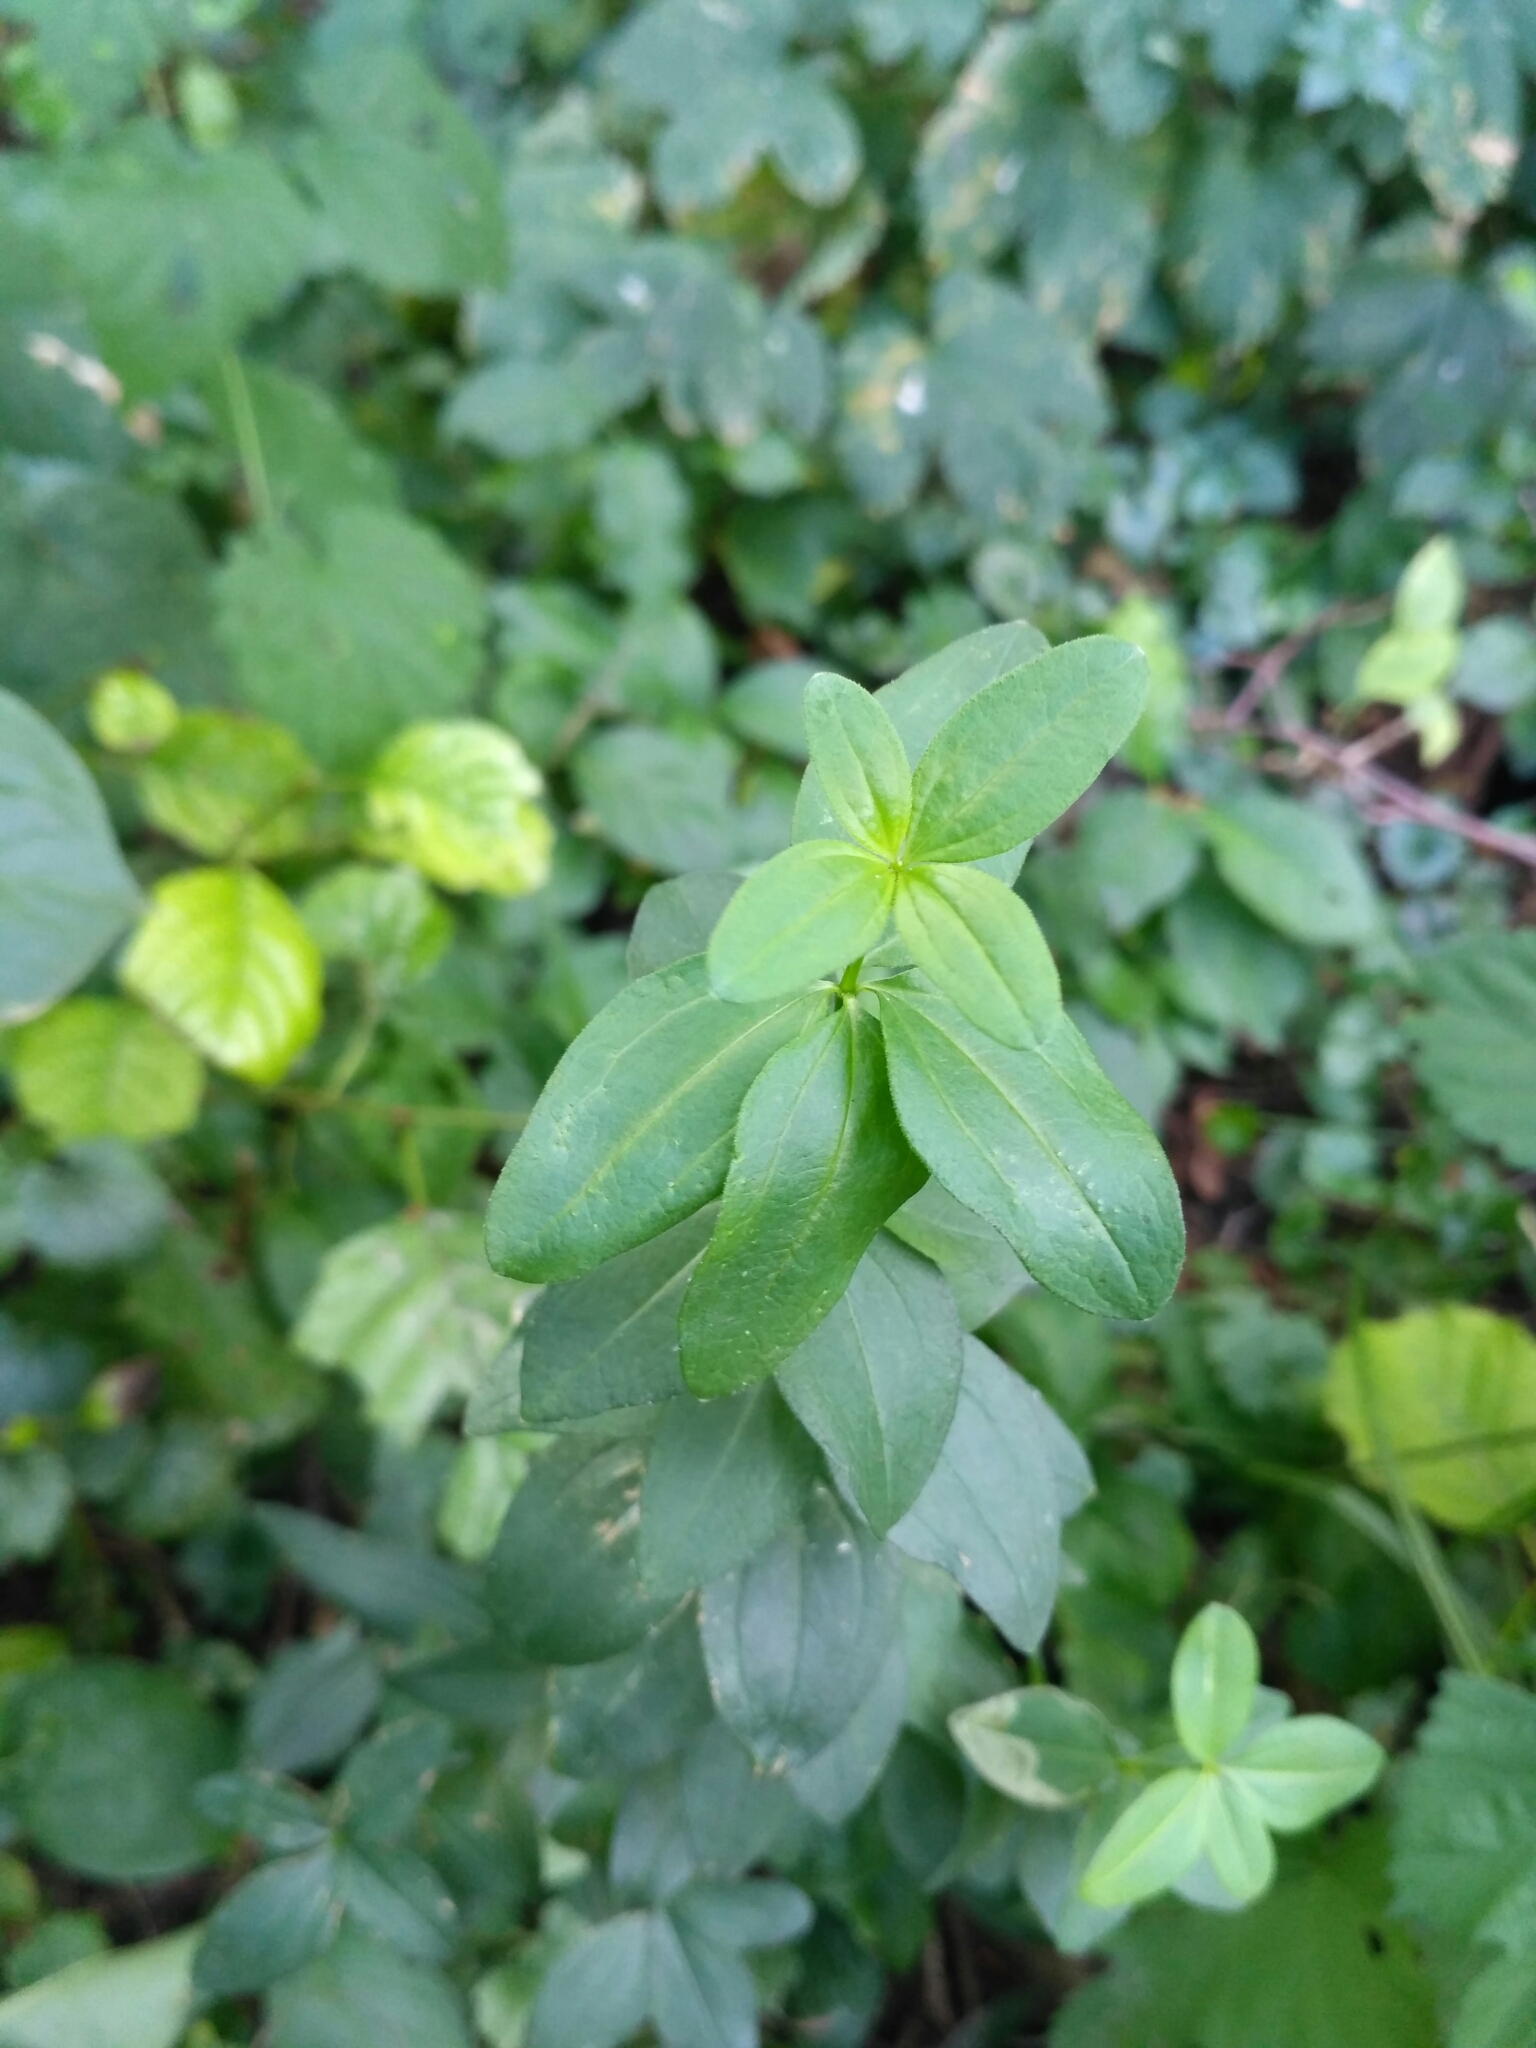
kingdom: Plantae
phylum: Tracheophyta
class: Magnoliopsida
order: Gentianales
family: Rubiaceae
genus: Galium
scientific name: Galium rubioides
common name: European bedstraw
